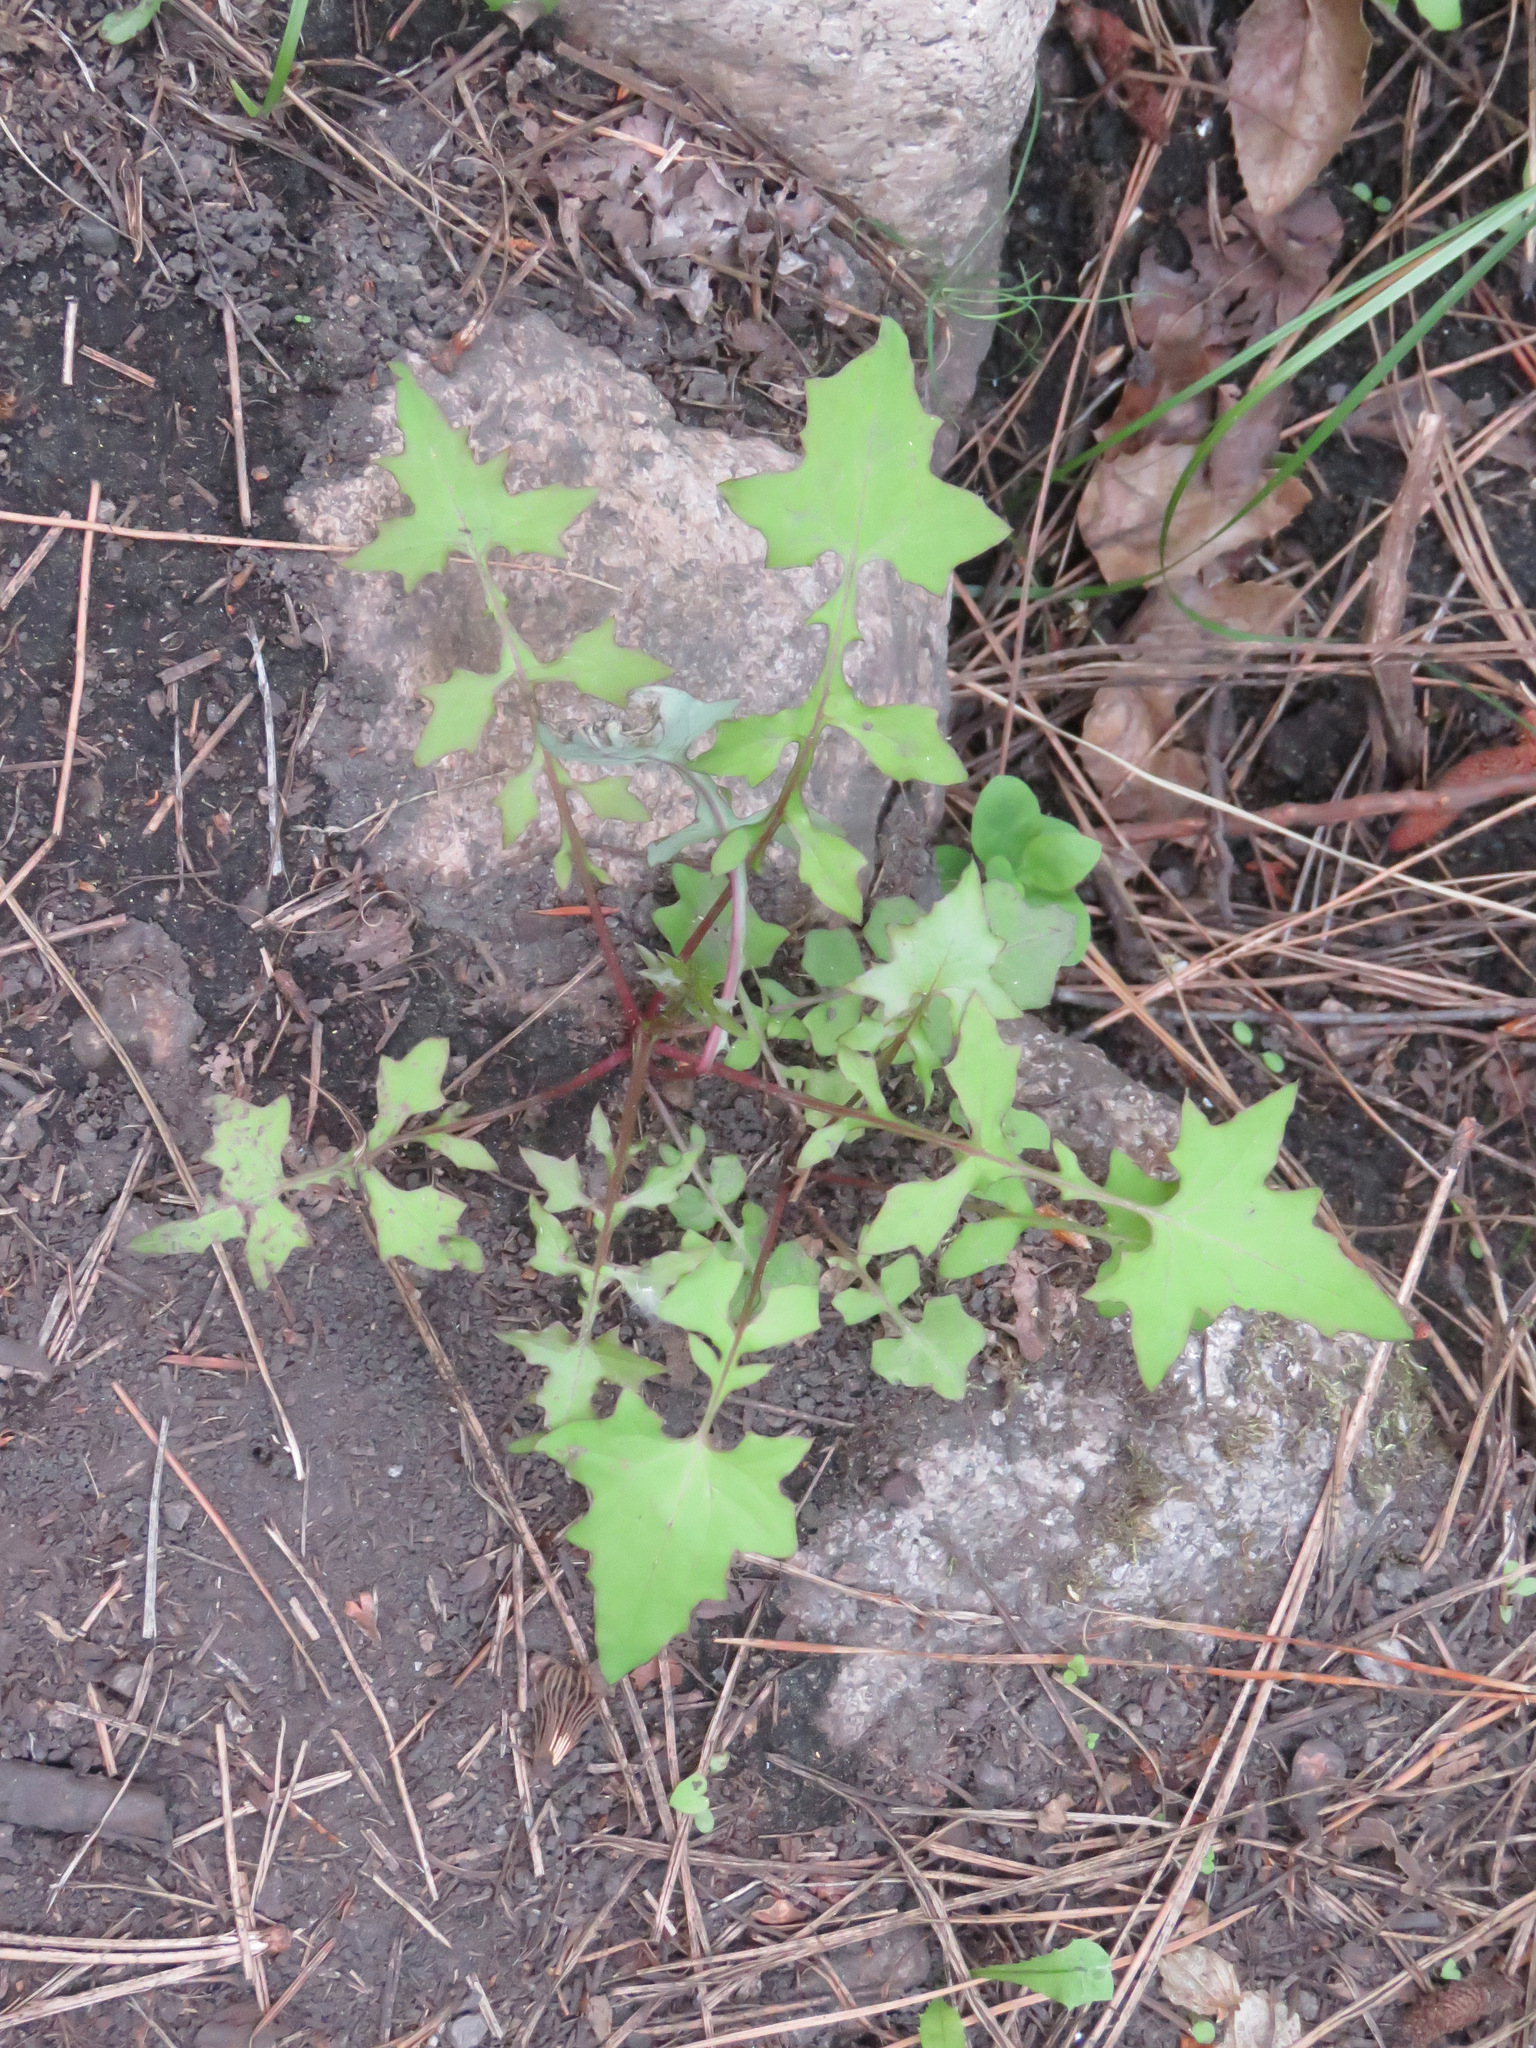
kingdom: Plantae
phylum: Tracheophyta
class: Magnoliopsida
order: Asterales
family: Asteraceae
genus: Mycelis
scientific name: Mycelis muralis
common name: Wall lettuce
